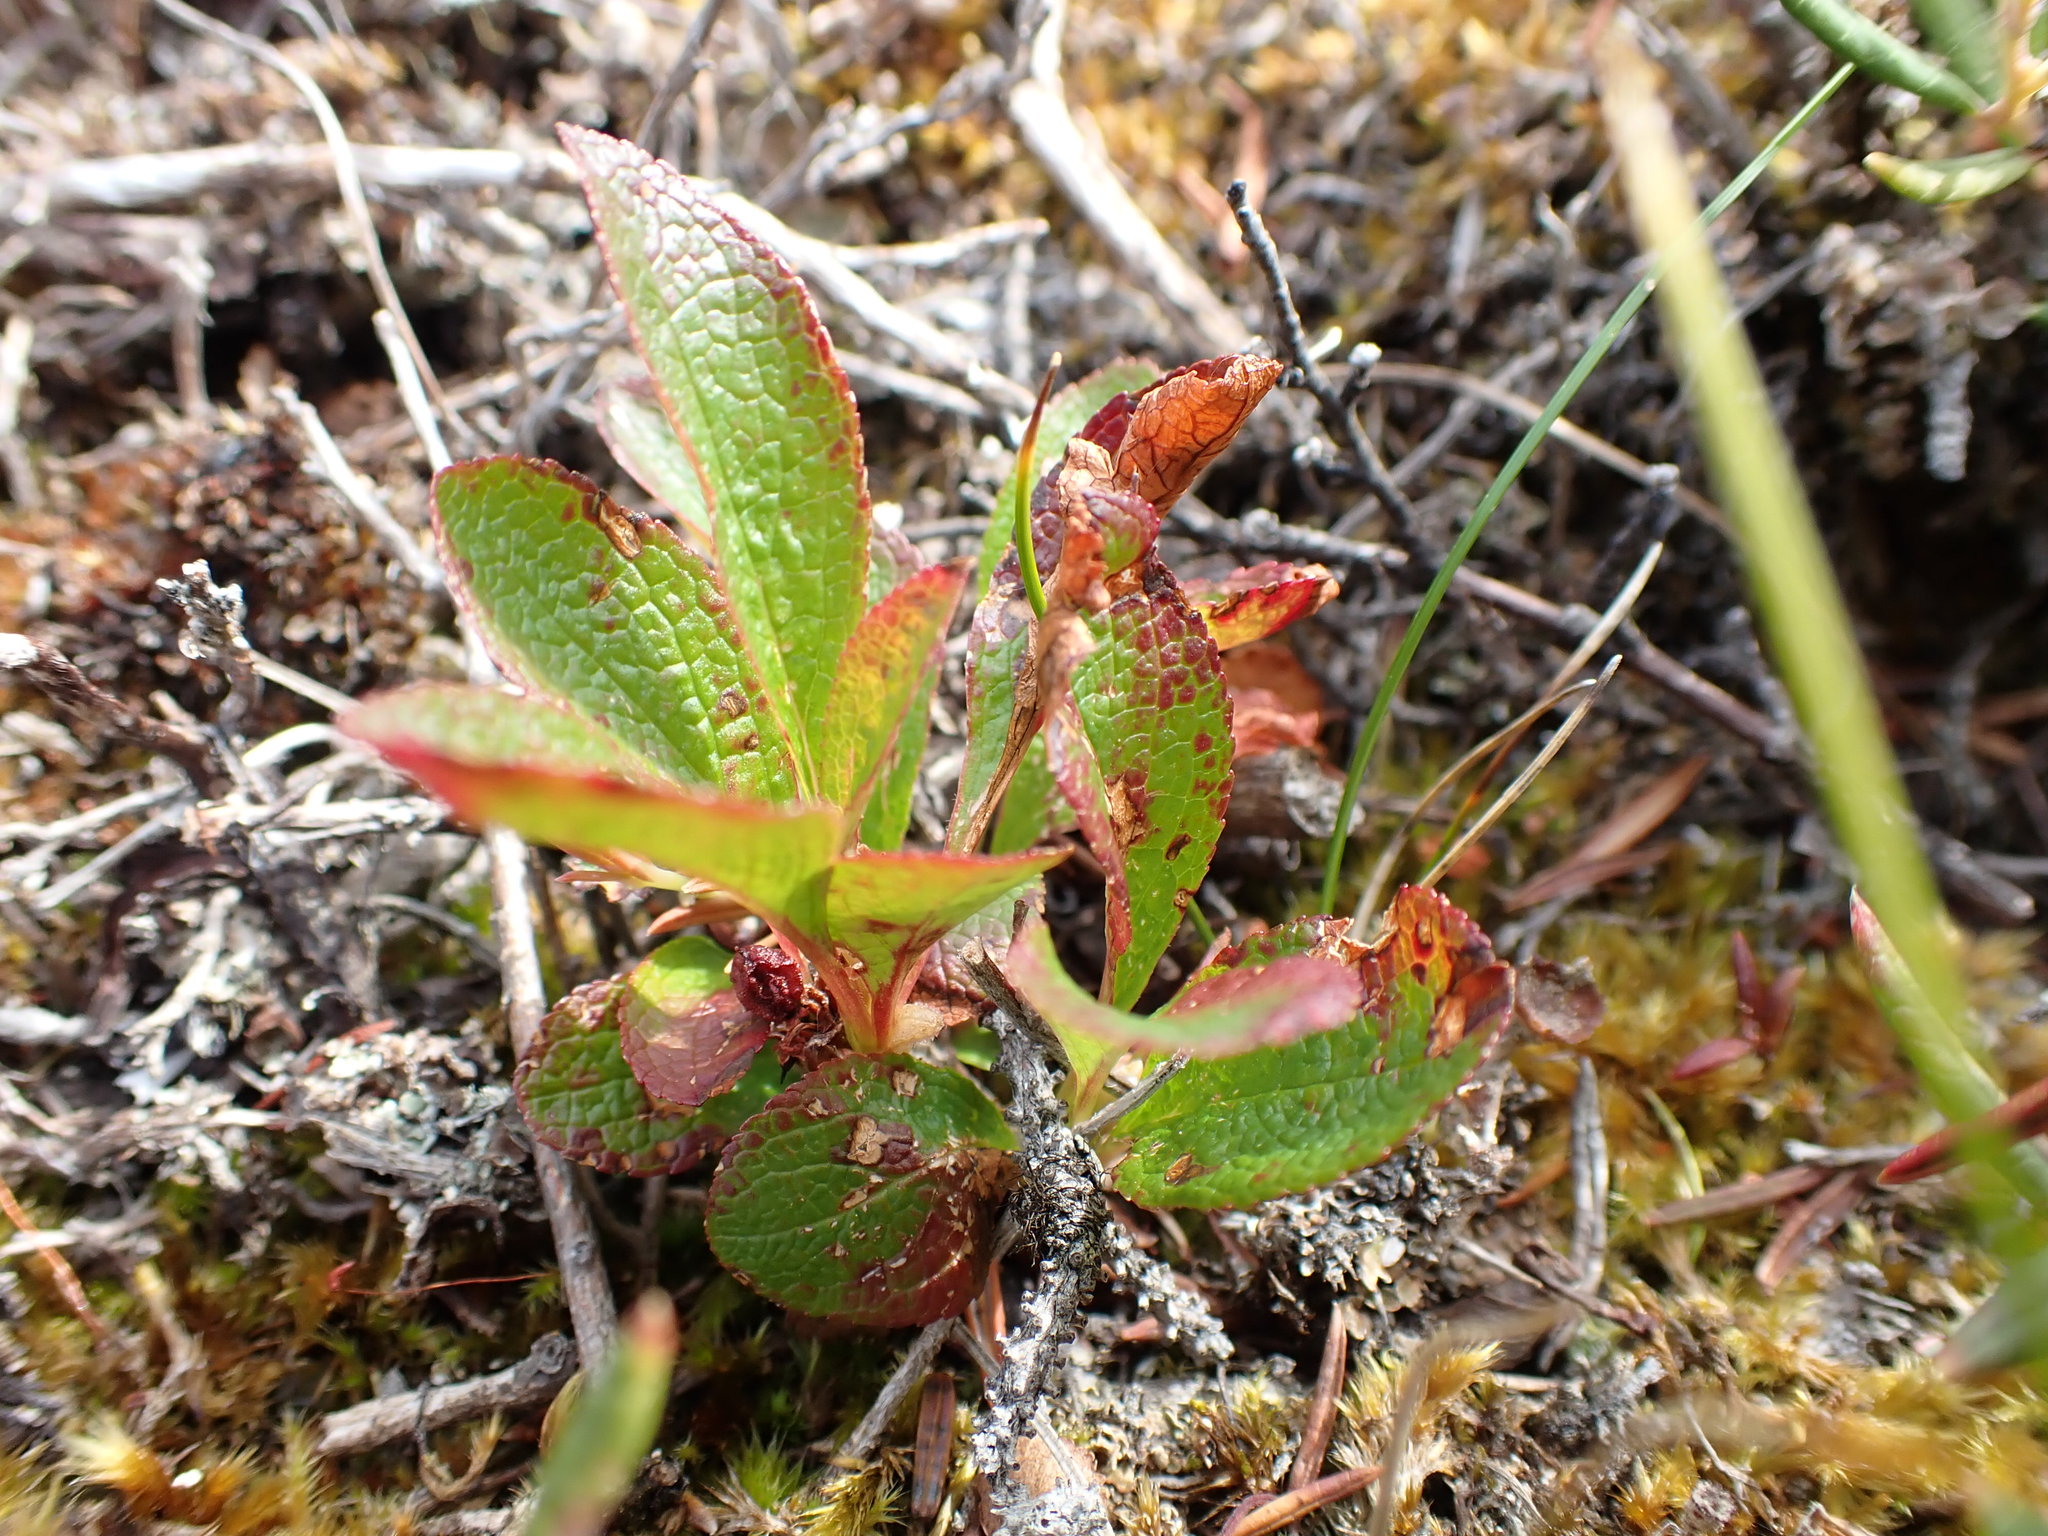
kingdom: Plantae
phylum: Tracheophyta
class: Magnoliopsida
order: Ericales
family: Ericaceae
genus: Arctostaphylos
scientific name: Arctostaphylos rubra
